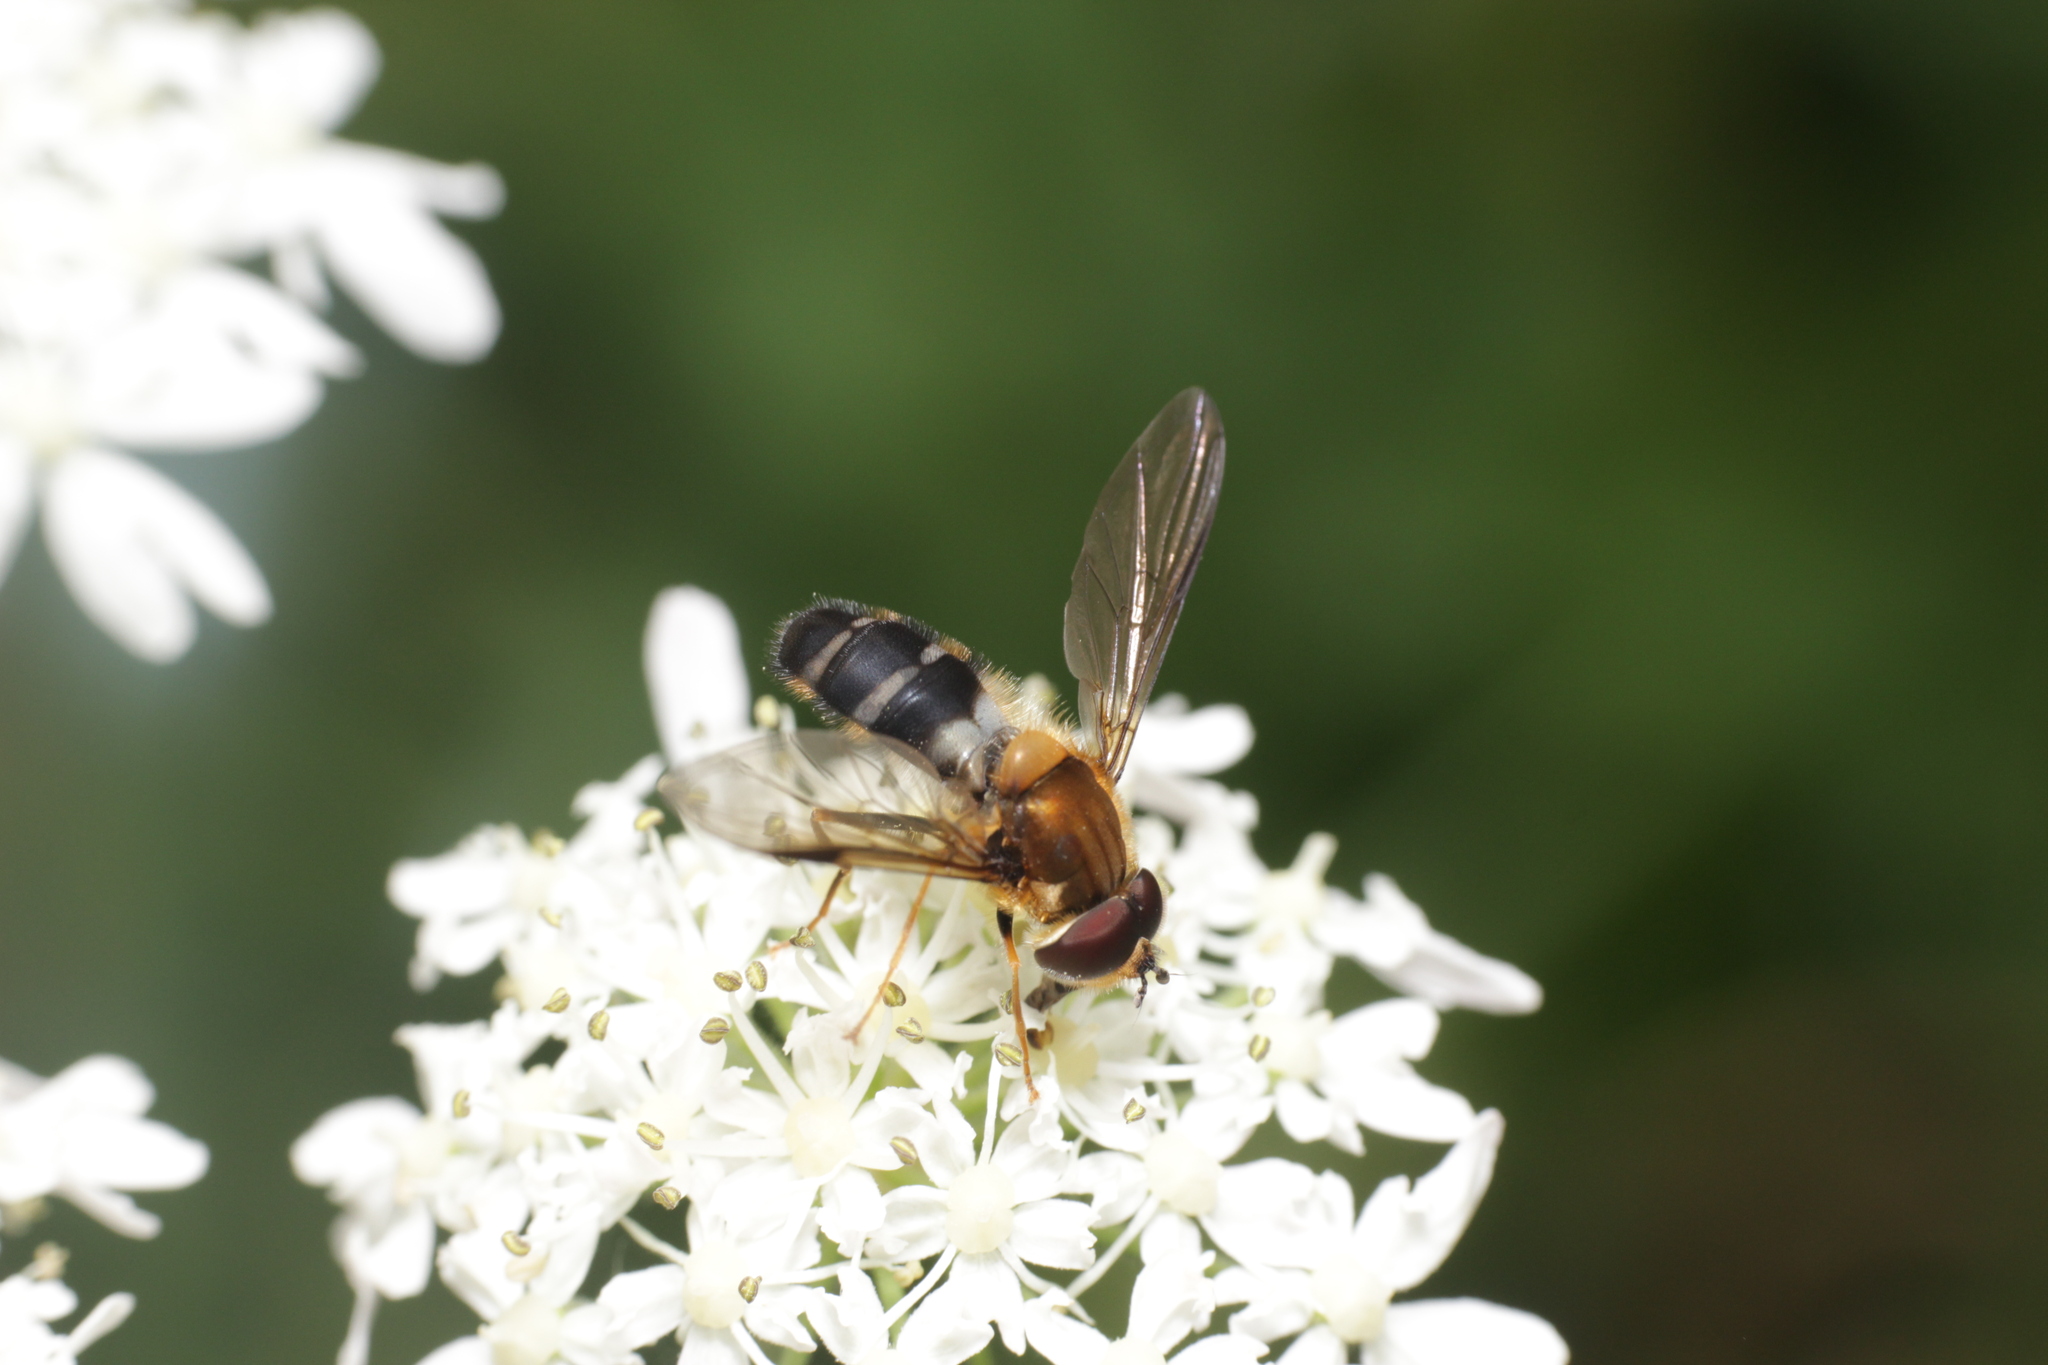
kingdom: Animalia
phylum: Arthropoda
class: Insecta
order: Diptera
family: Syrphidae
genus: Leucozona
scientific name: Leucozona glaucia
